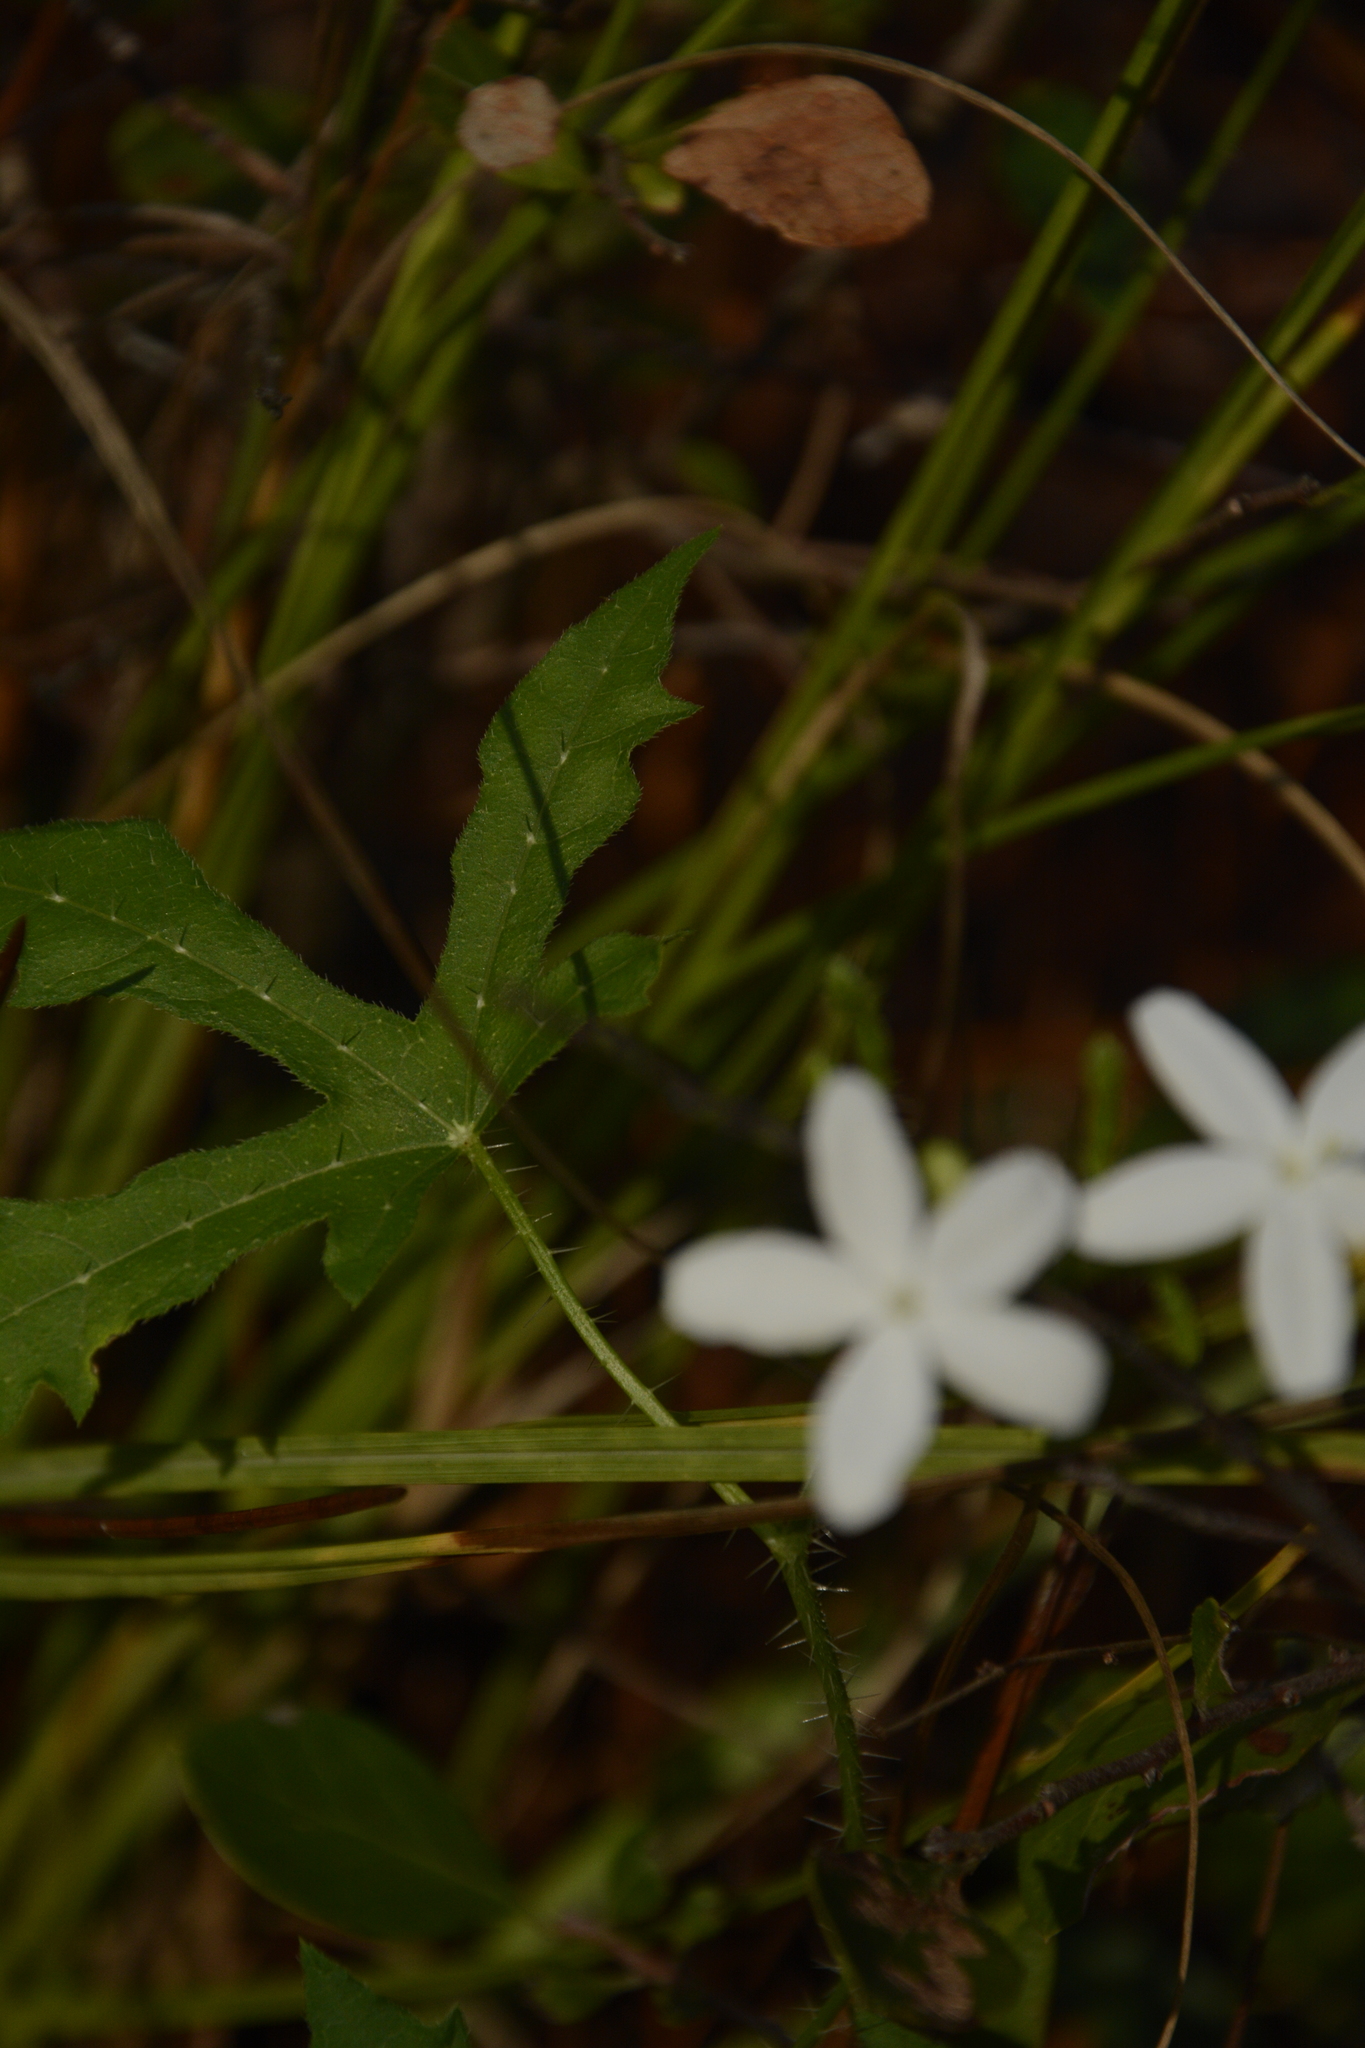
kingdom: Plantae
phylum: Tracheophyta
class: Magnoliopsida
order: Malpighiales
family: Euphorbiaceae
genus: Cnidoscolus
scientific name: Cnidoscolus stimulosus
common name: Bull-nettle
